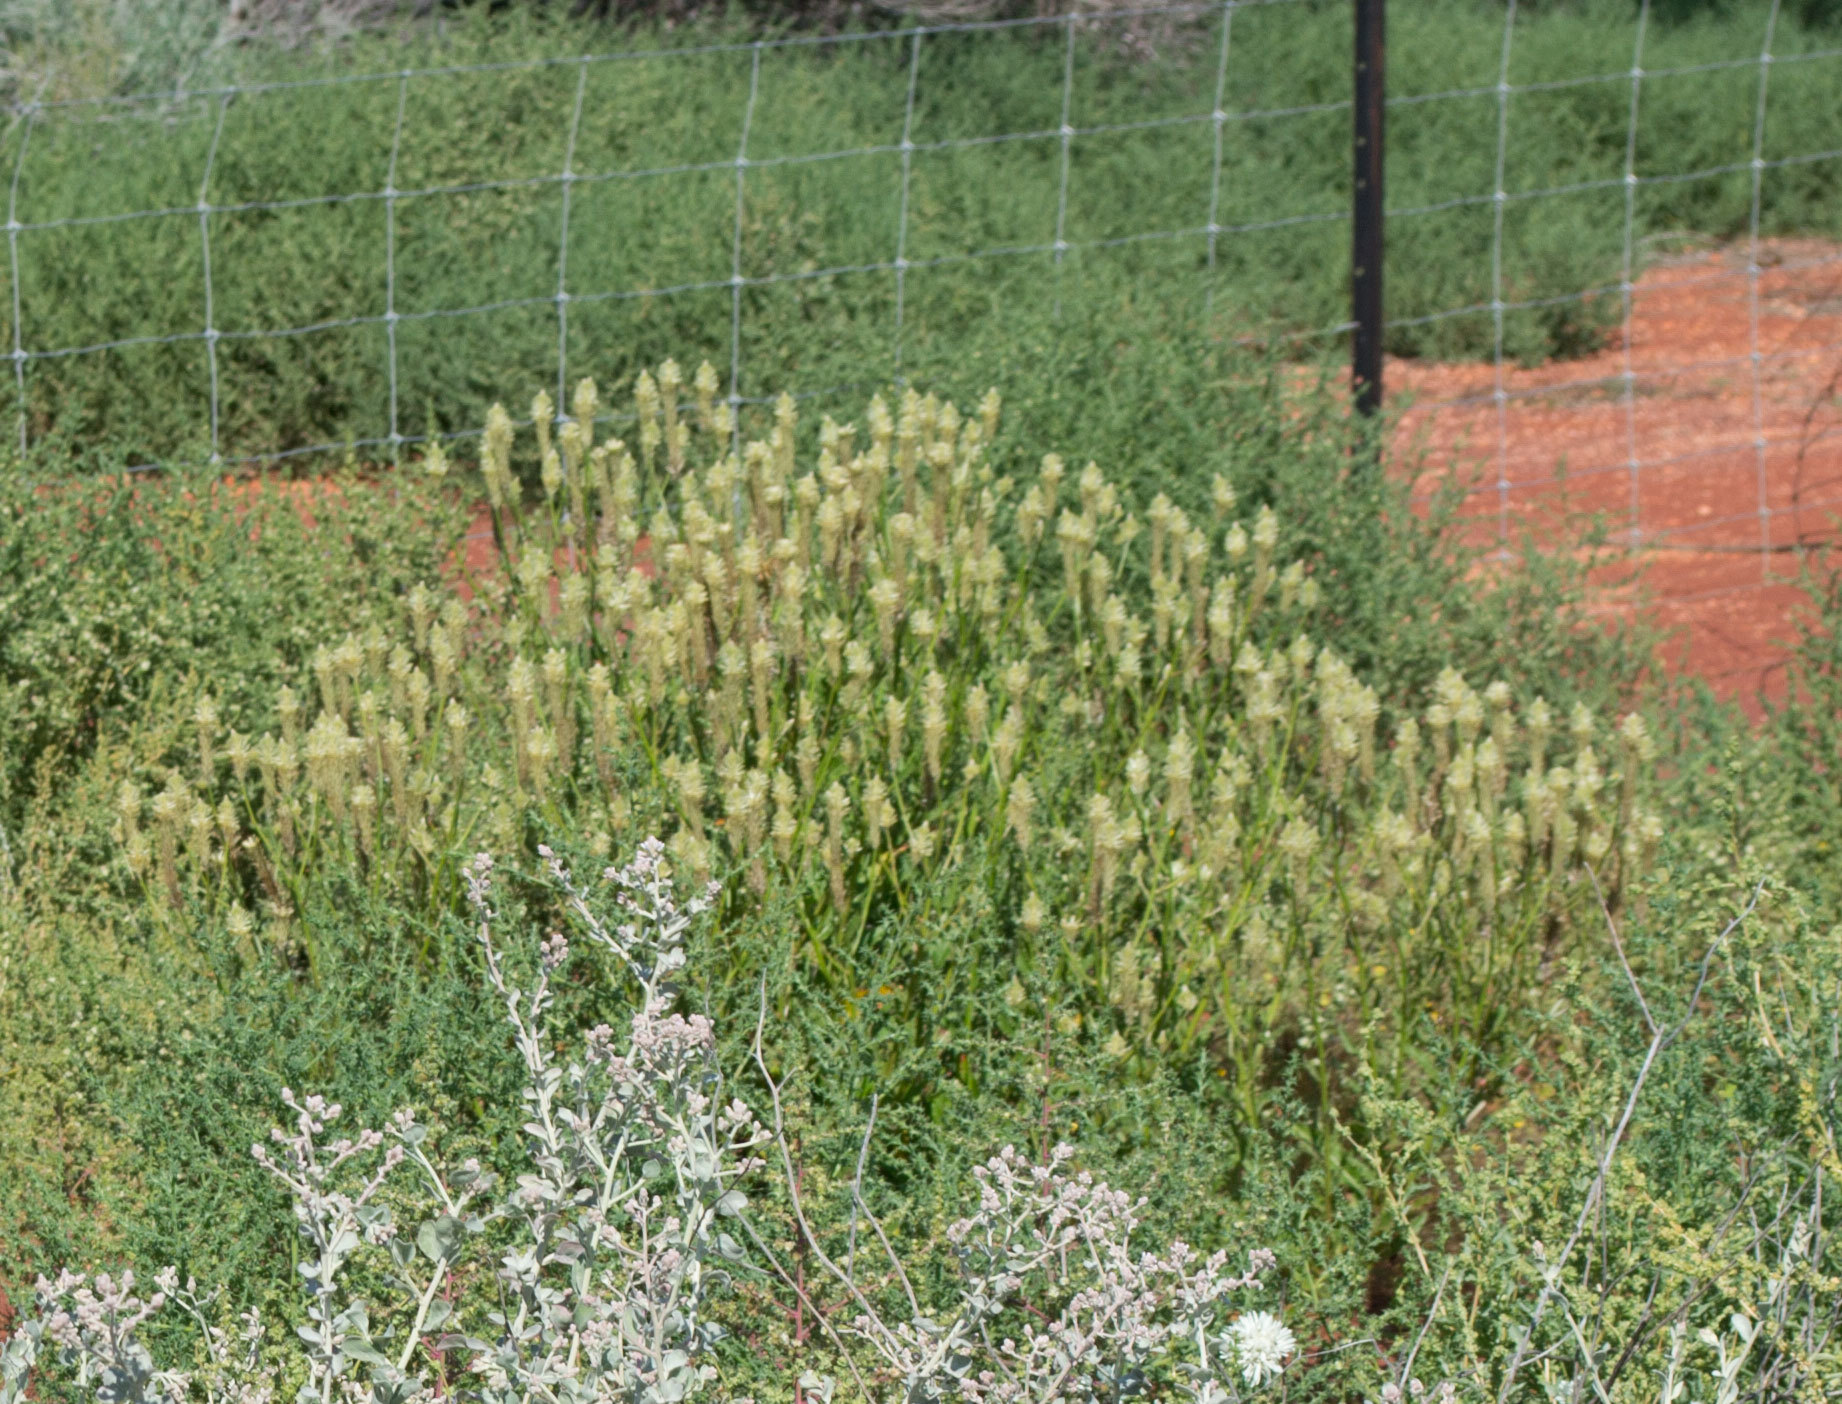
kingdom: Plantae
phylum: Tracheophyta
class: Magnoliopsida
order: Caryophyllales
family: Amaranthaceae
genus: Ptilotus
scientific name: Ptilotus polystachyus
